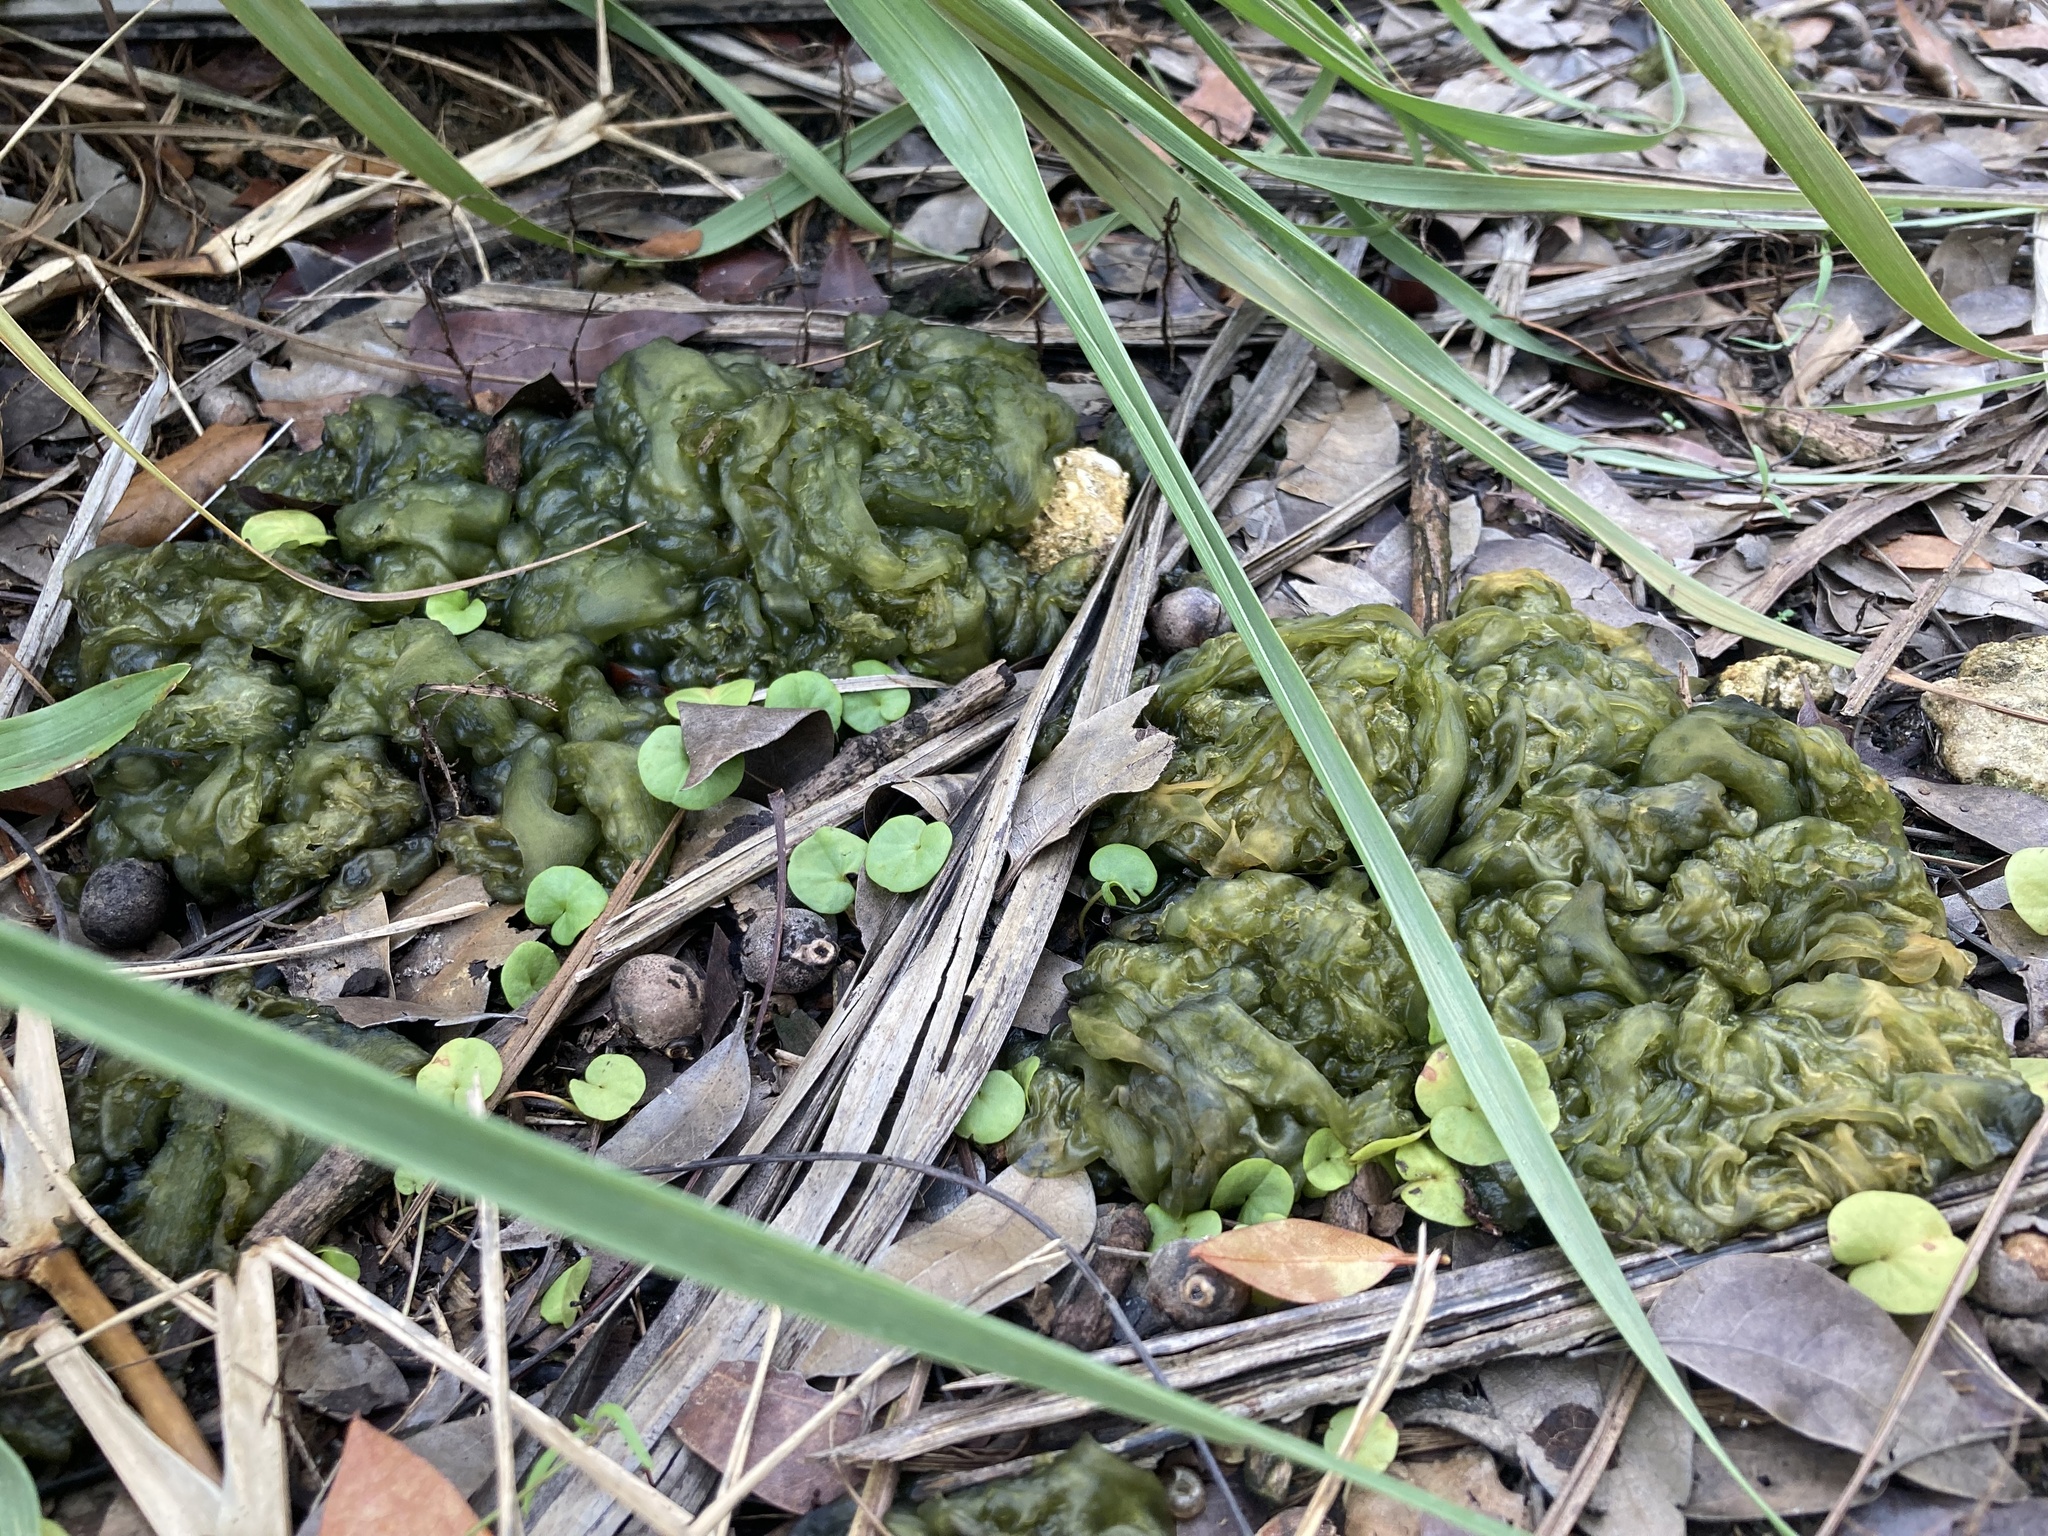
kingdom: Bacteria
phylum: Cyanobacteria
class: Cyanobacteriia
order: Cyanobacteriales
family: Nostocaceae
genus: Nostoc
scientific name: Nostoc commune
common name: Star jelly
